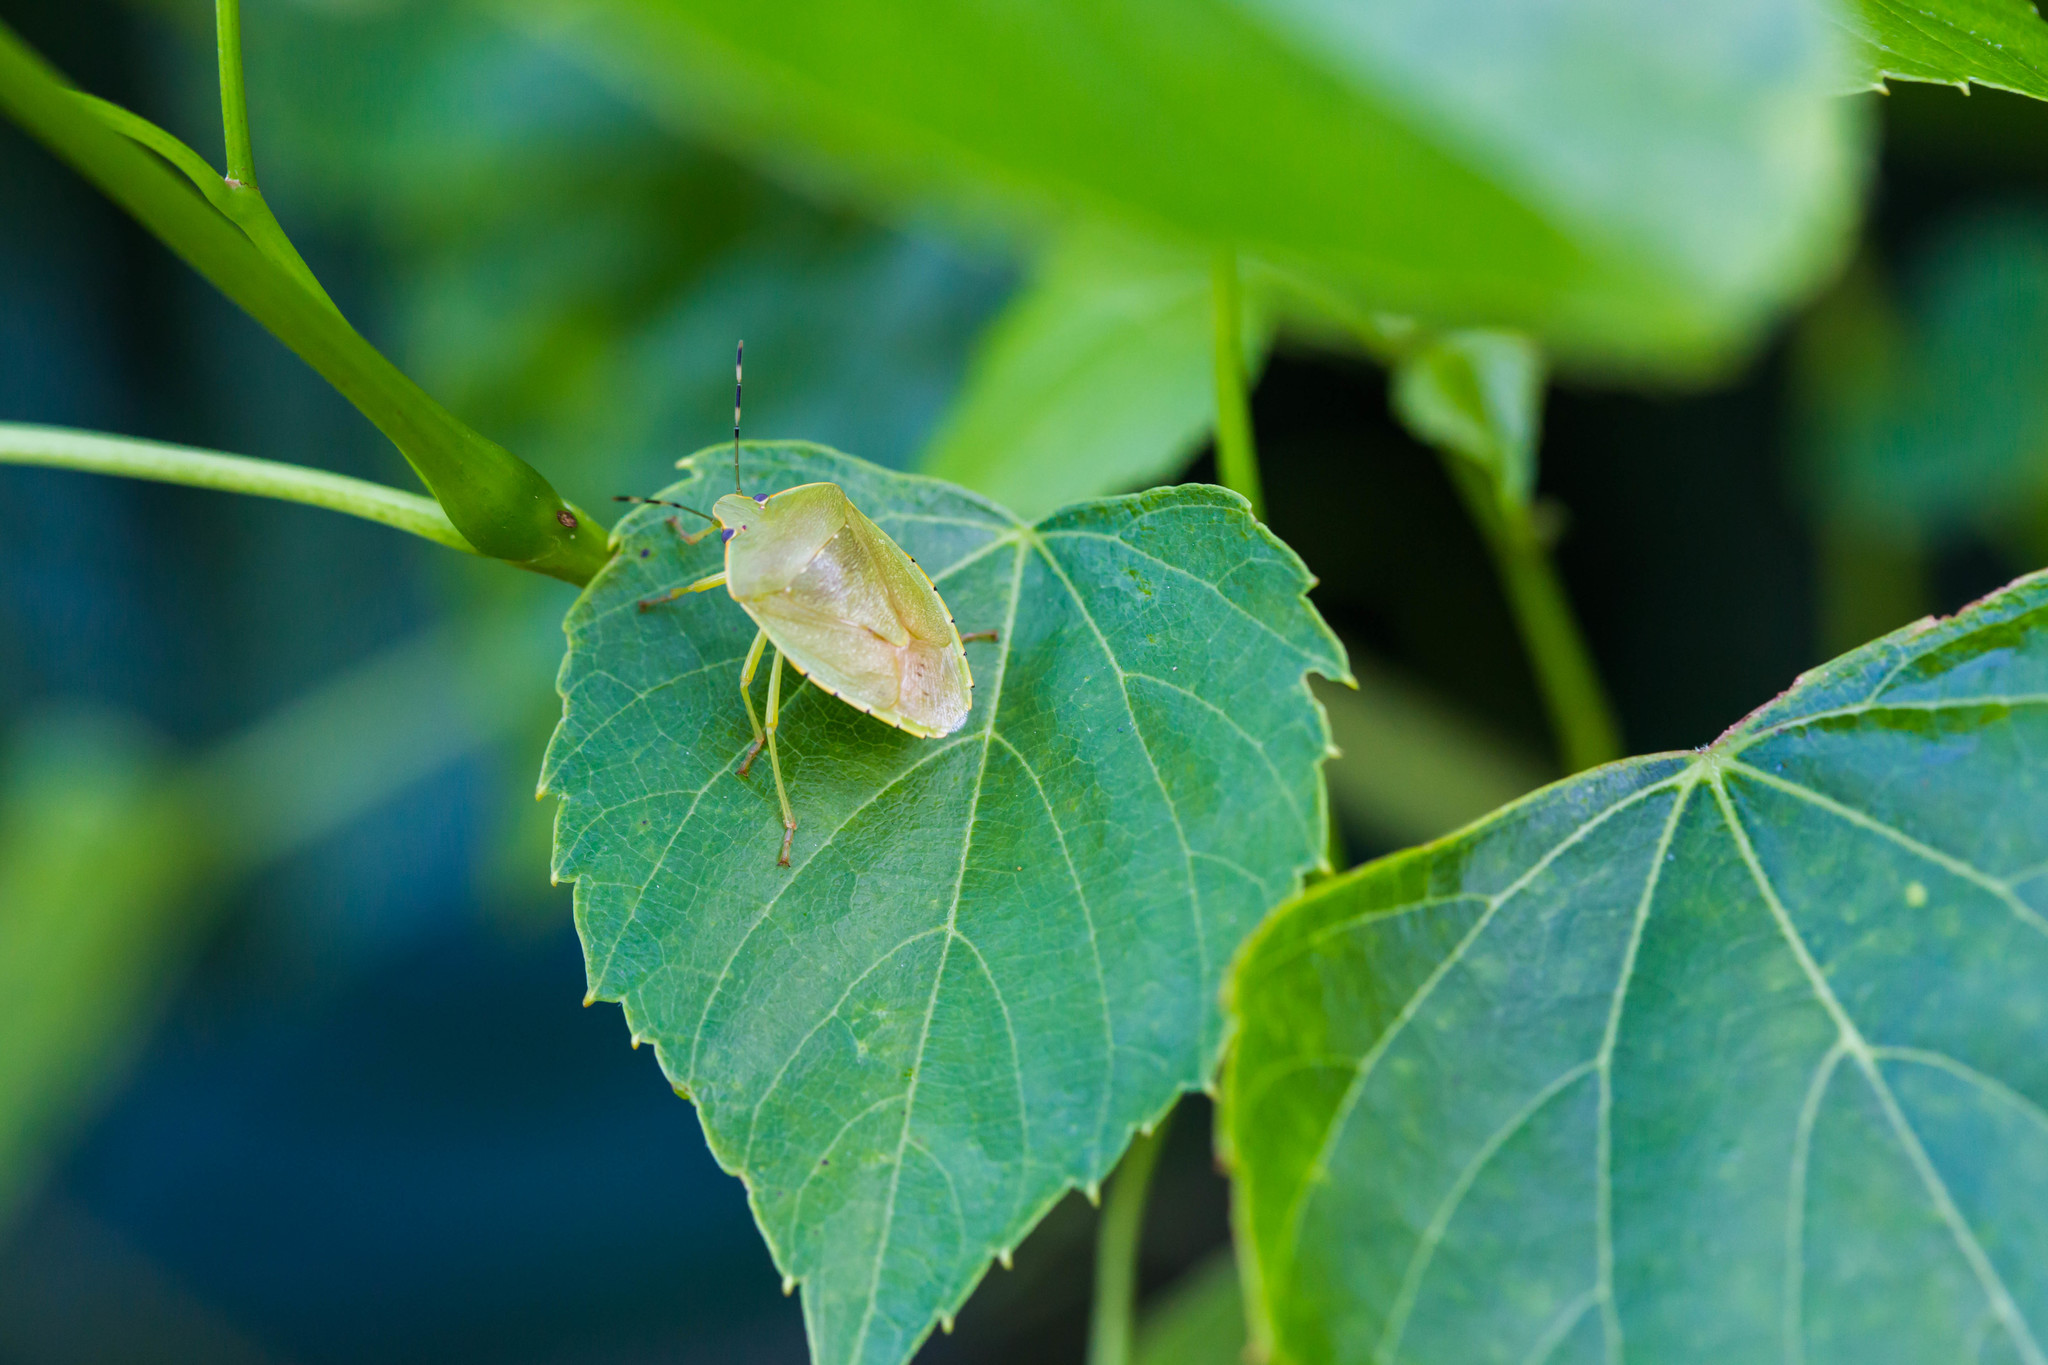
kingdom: Animalia
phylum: Arthropoda
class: Insecta
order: Hemiptera
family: Pentatomidae
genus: Chinavia
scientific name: Chinavia hilaris
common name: Green stink bug
